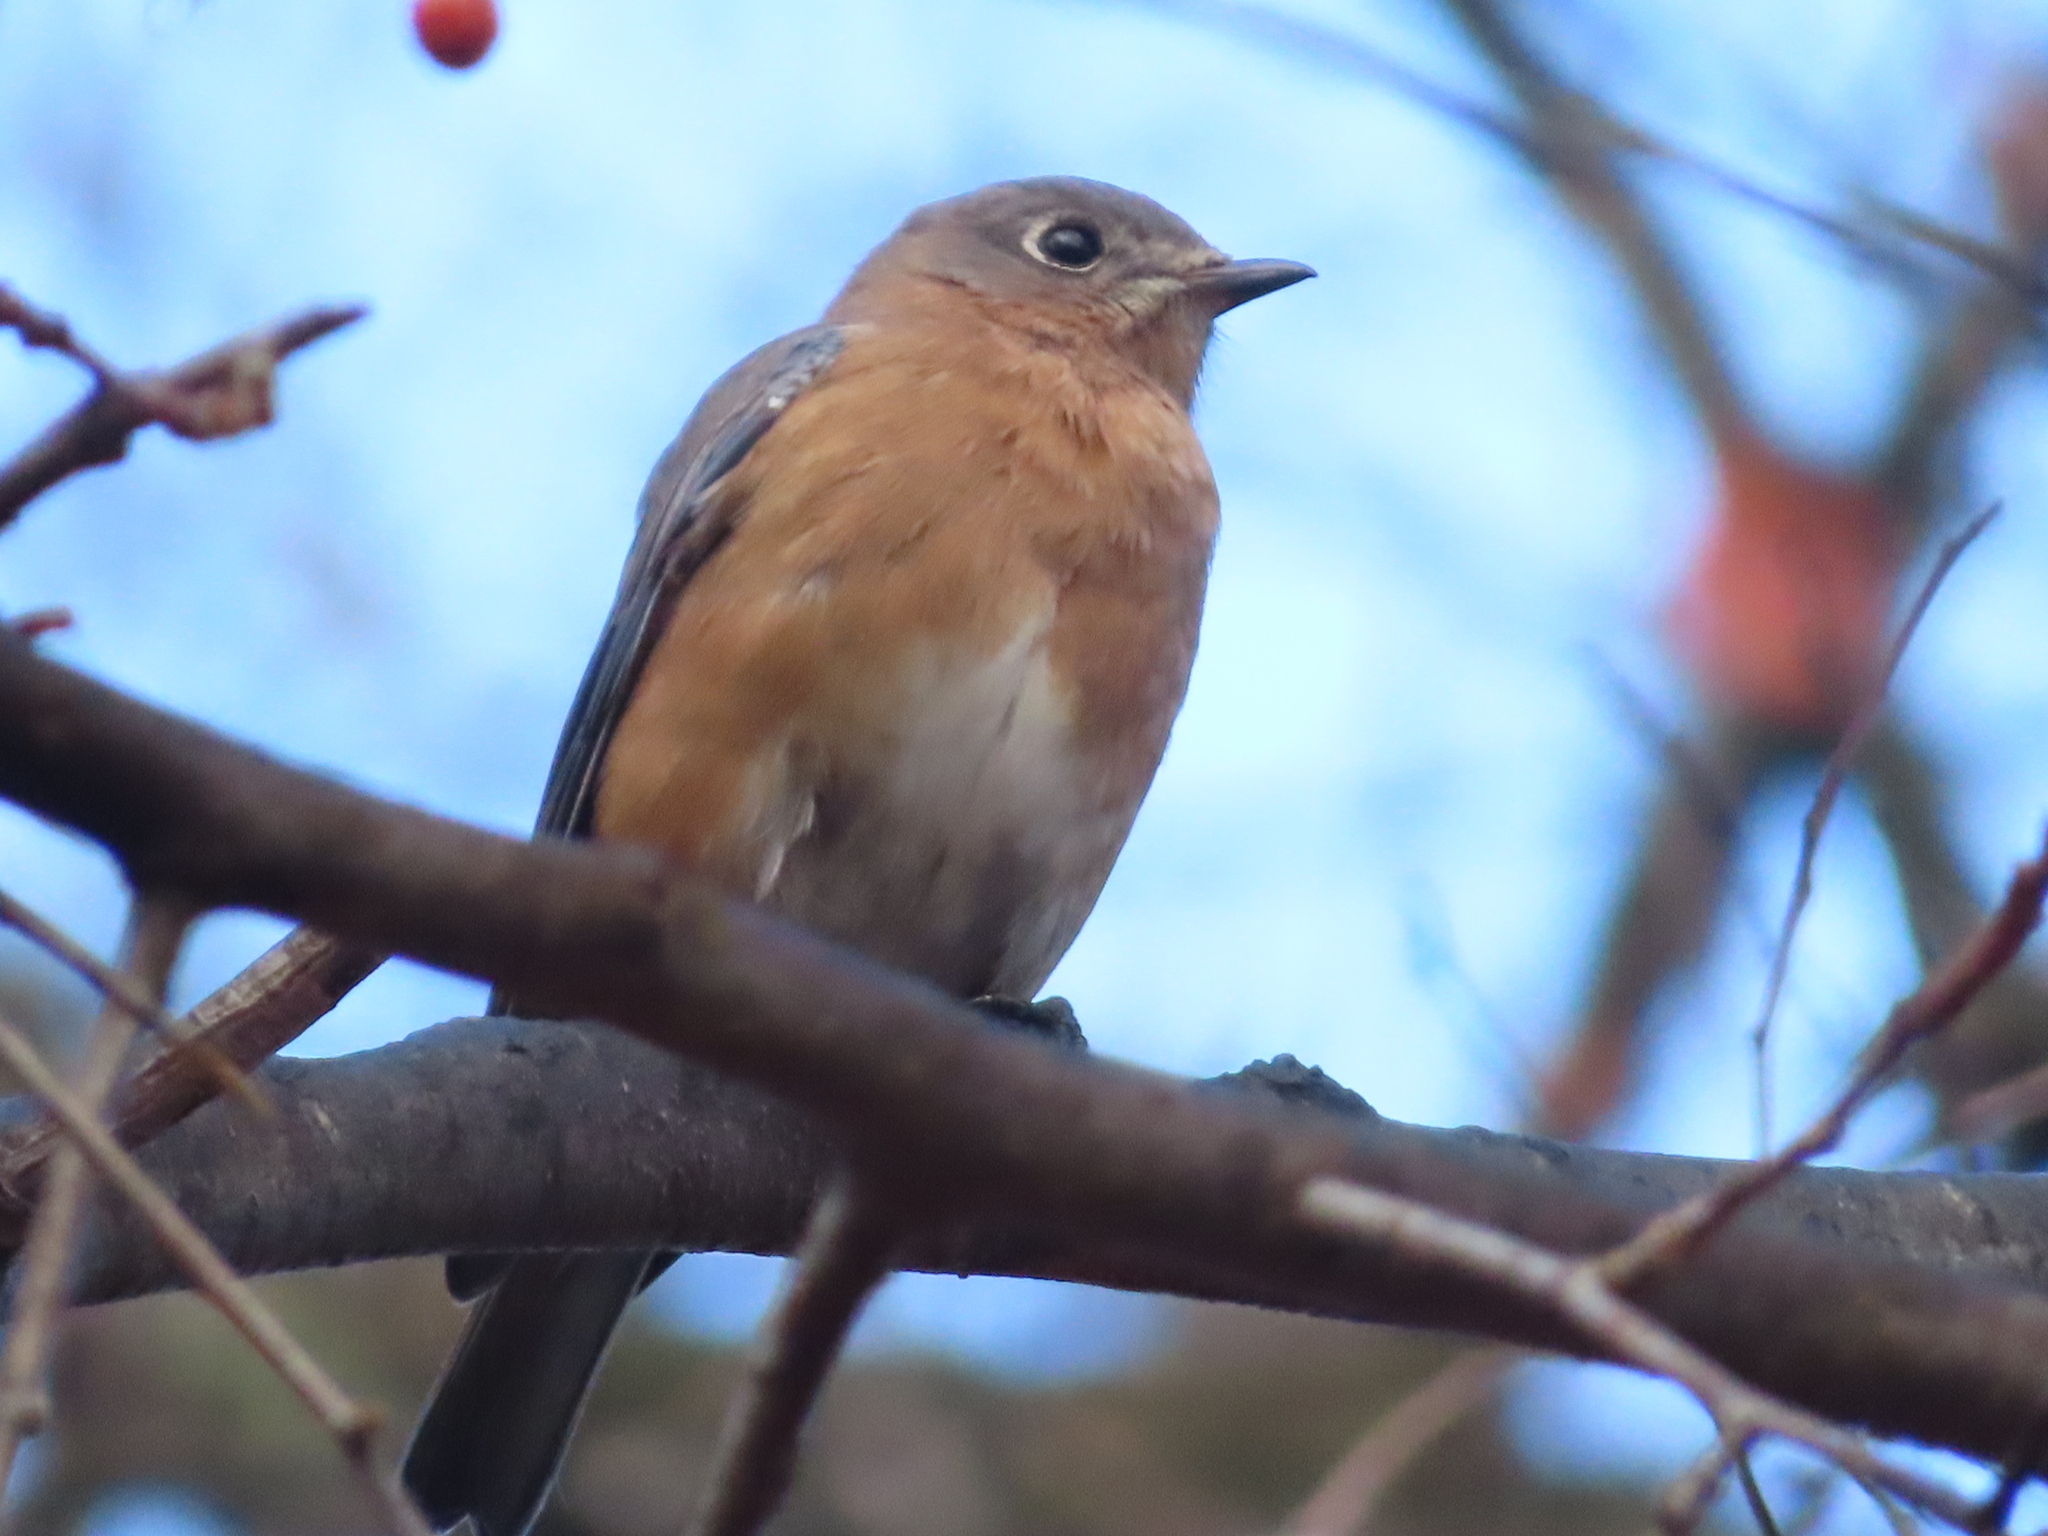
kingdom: Animalia
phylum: Chordata
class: Aves
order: Passeriformes
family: Turdidae
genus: Sialia
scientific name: Sialia sialis
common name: Eastern bluebird
